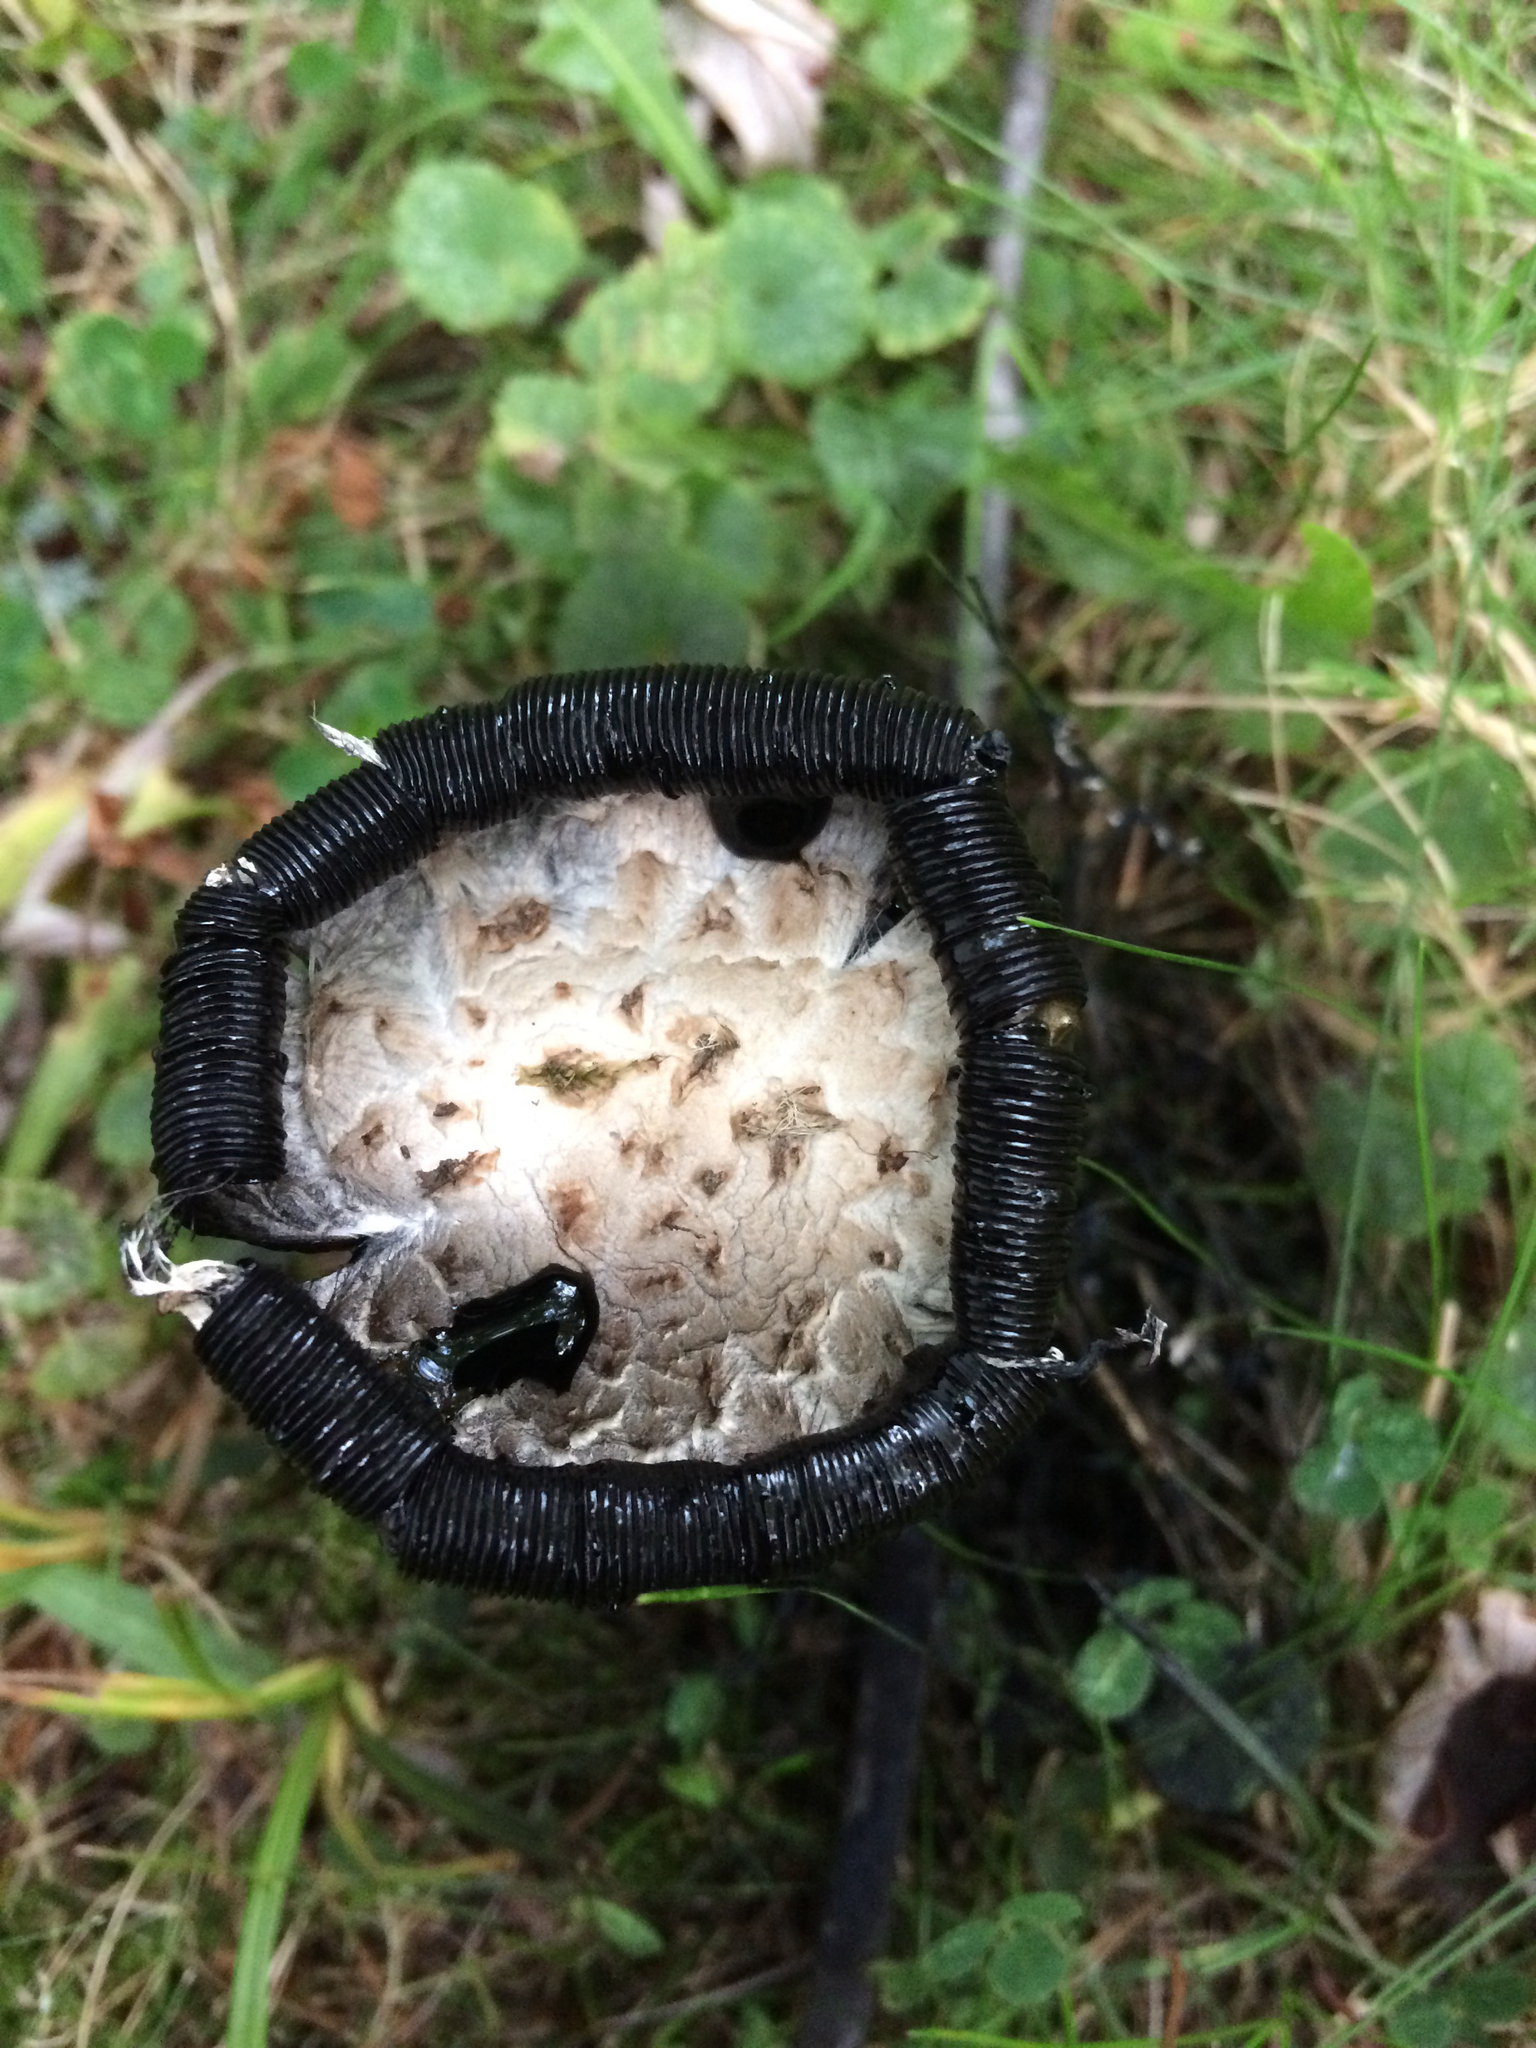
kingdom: Fungi
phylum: Basidiomycota
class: Agaricomycetes
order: Agaricales
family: Agaricaceae
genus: Coprinus
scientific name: Coprinus comatus
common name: Lawyer's wig
